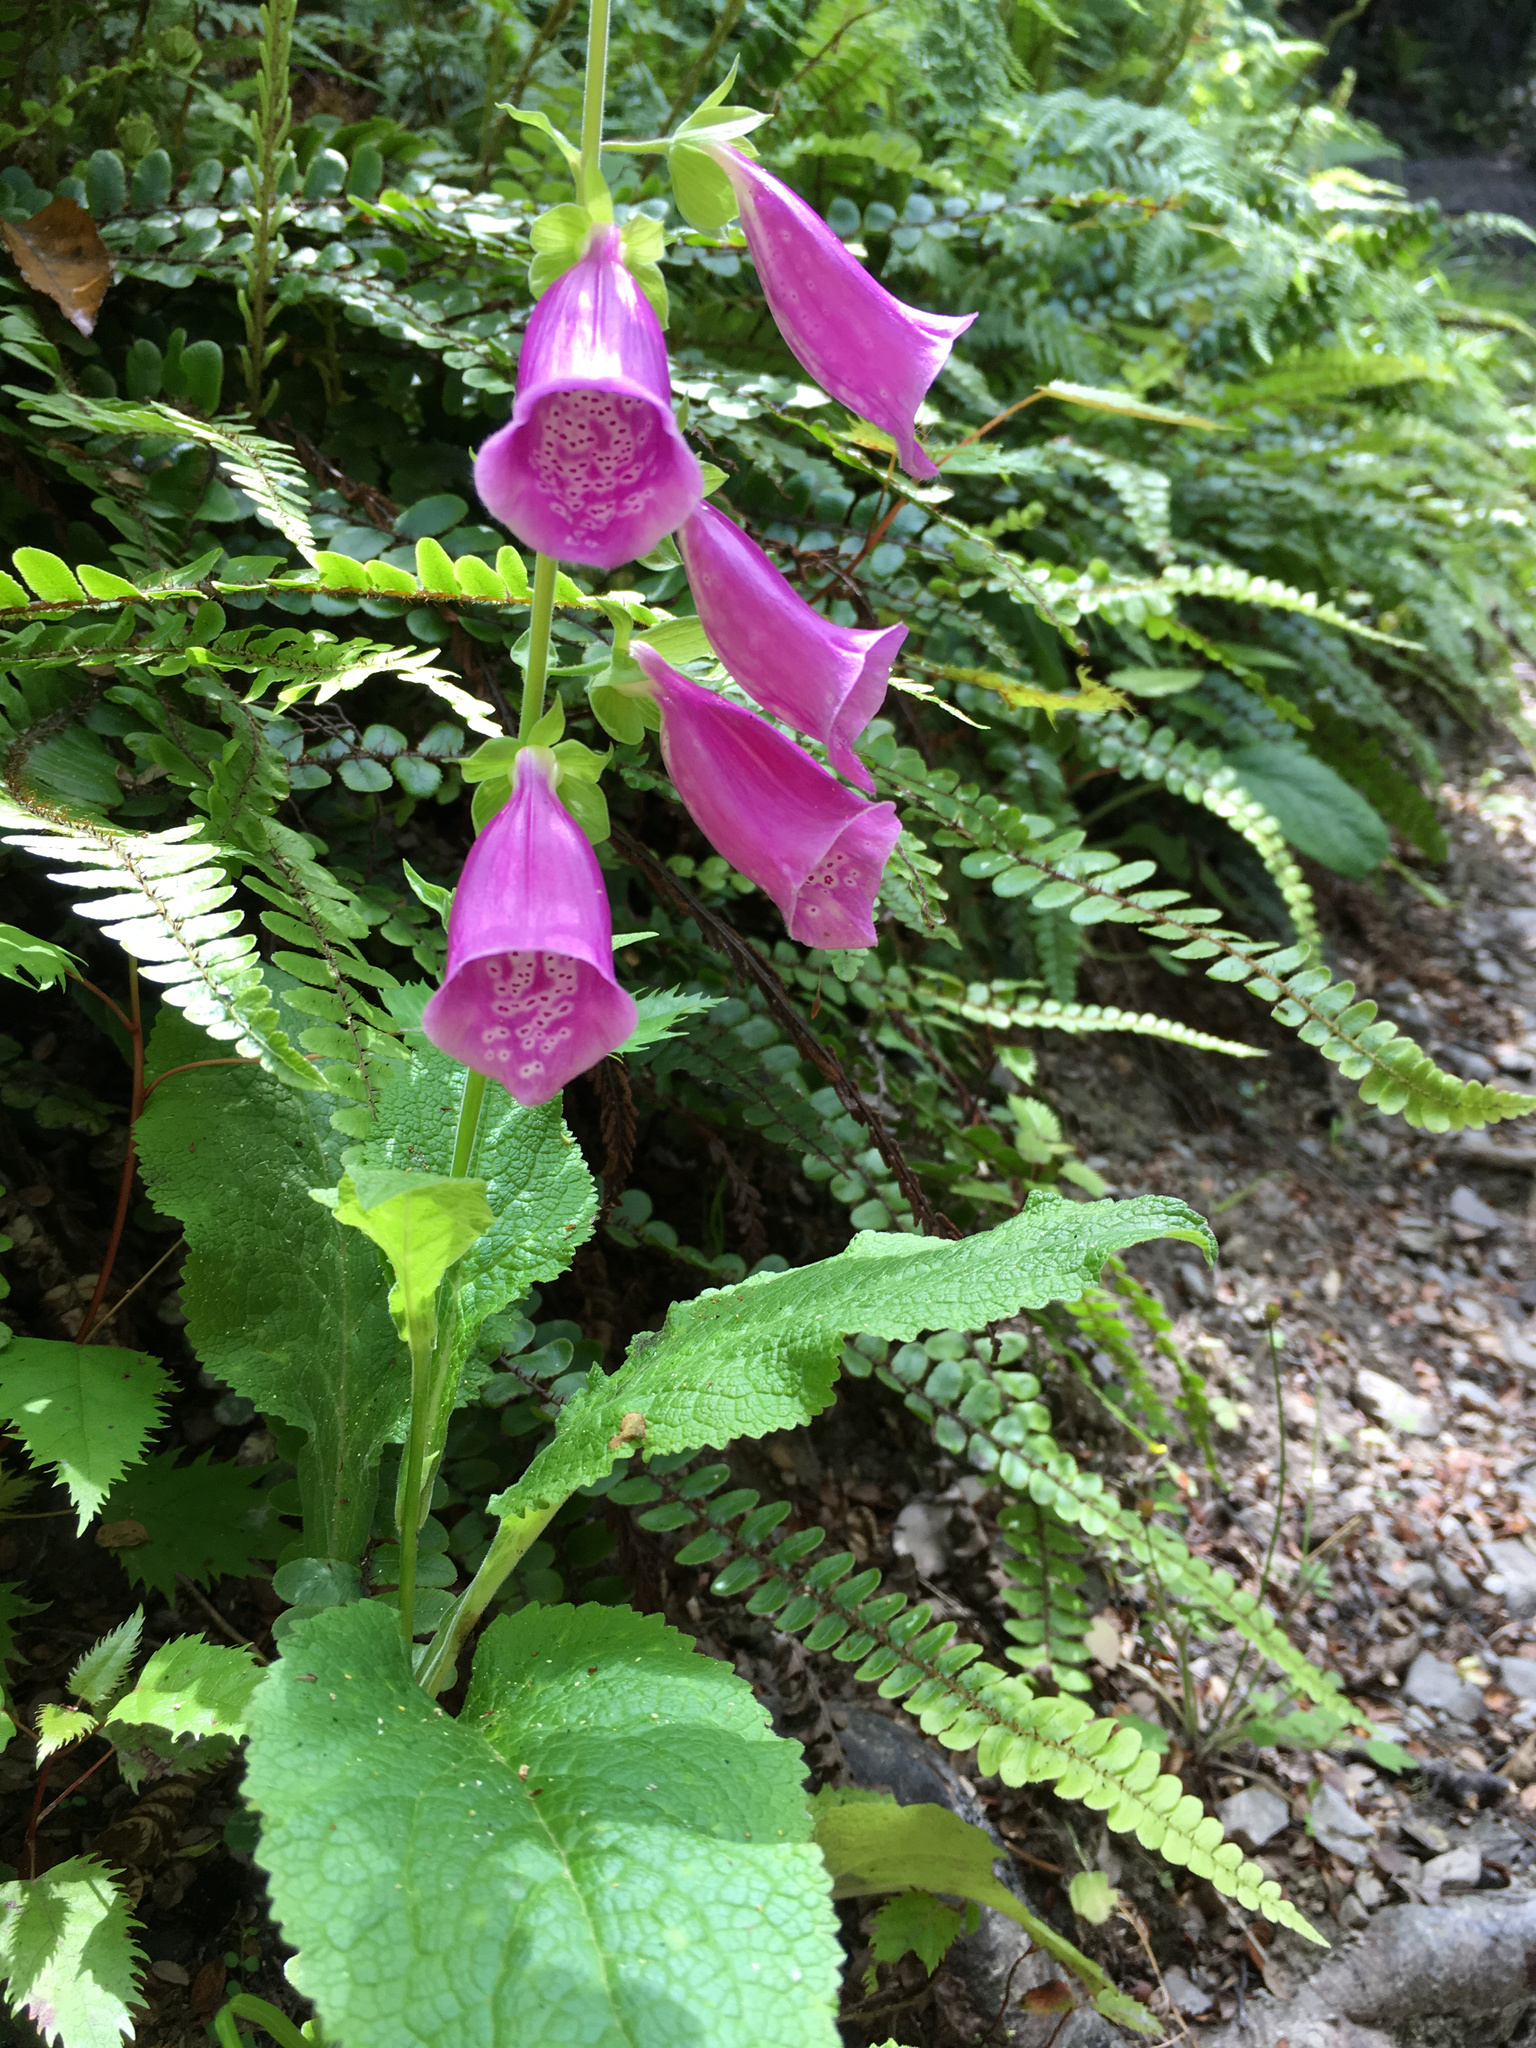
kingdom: Plantae
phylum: Tracheophyta
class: Magnoliopsida
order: Lamiales
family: Plantaginaceae
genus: Digitalis
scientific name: Digitalis purpurea
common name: Foxglove
